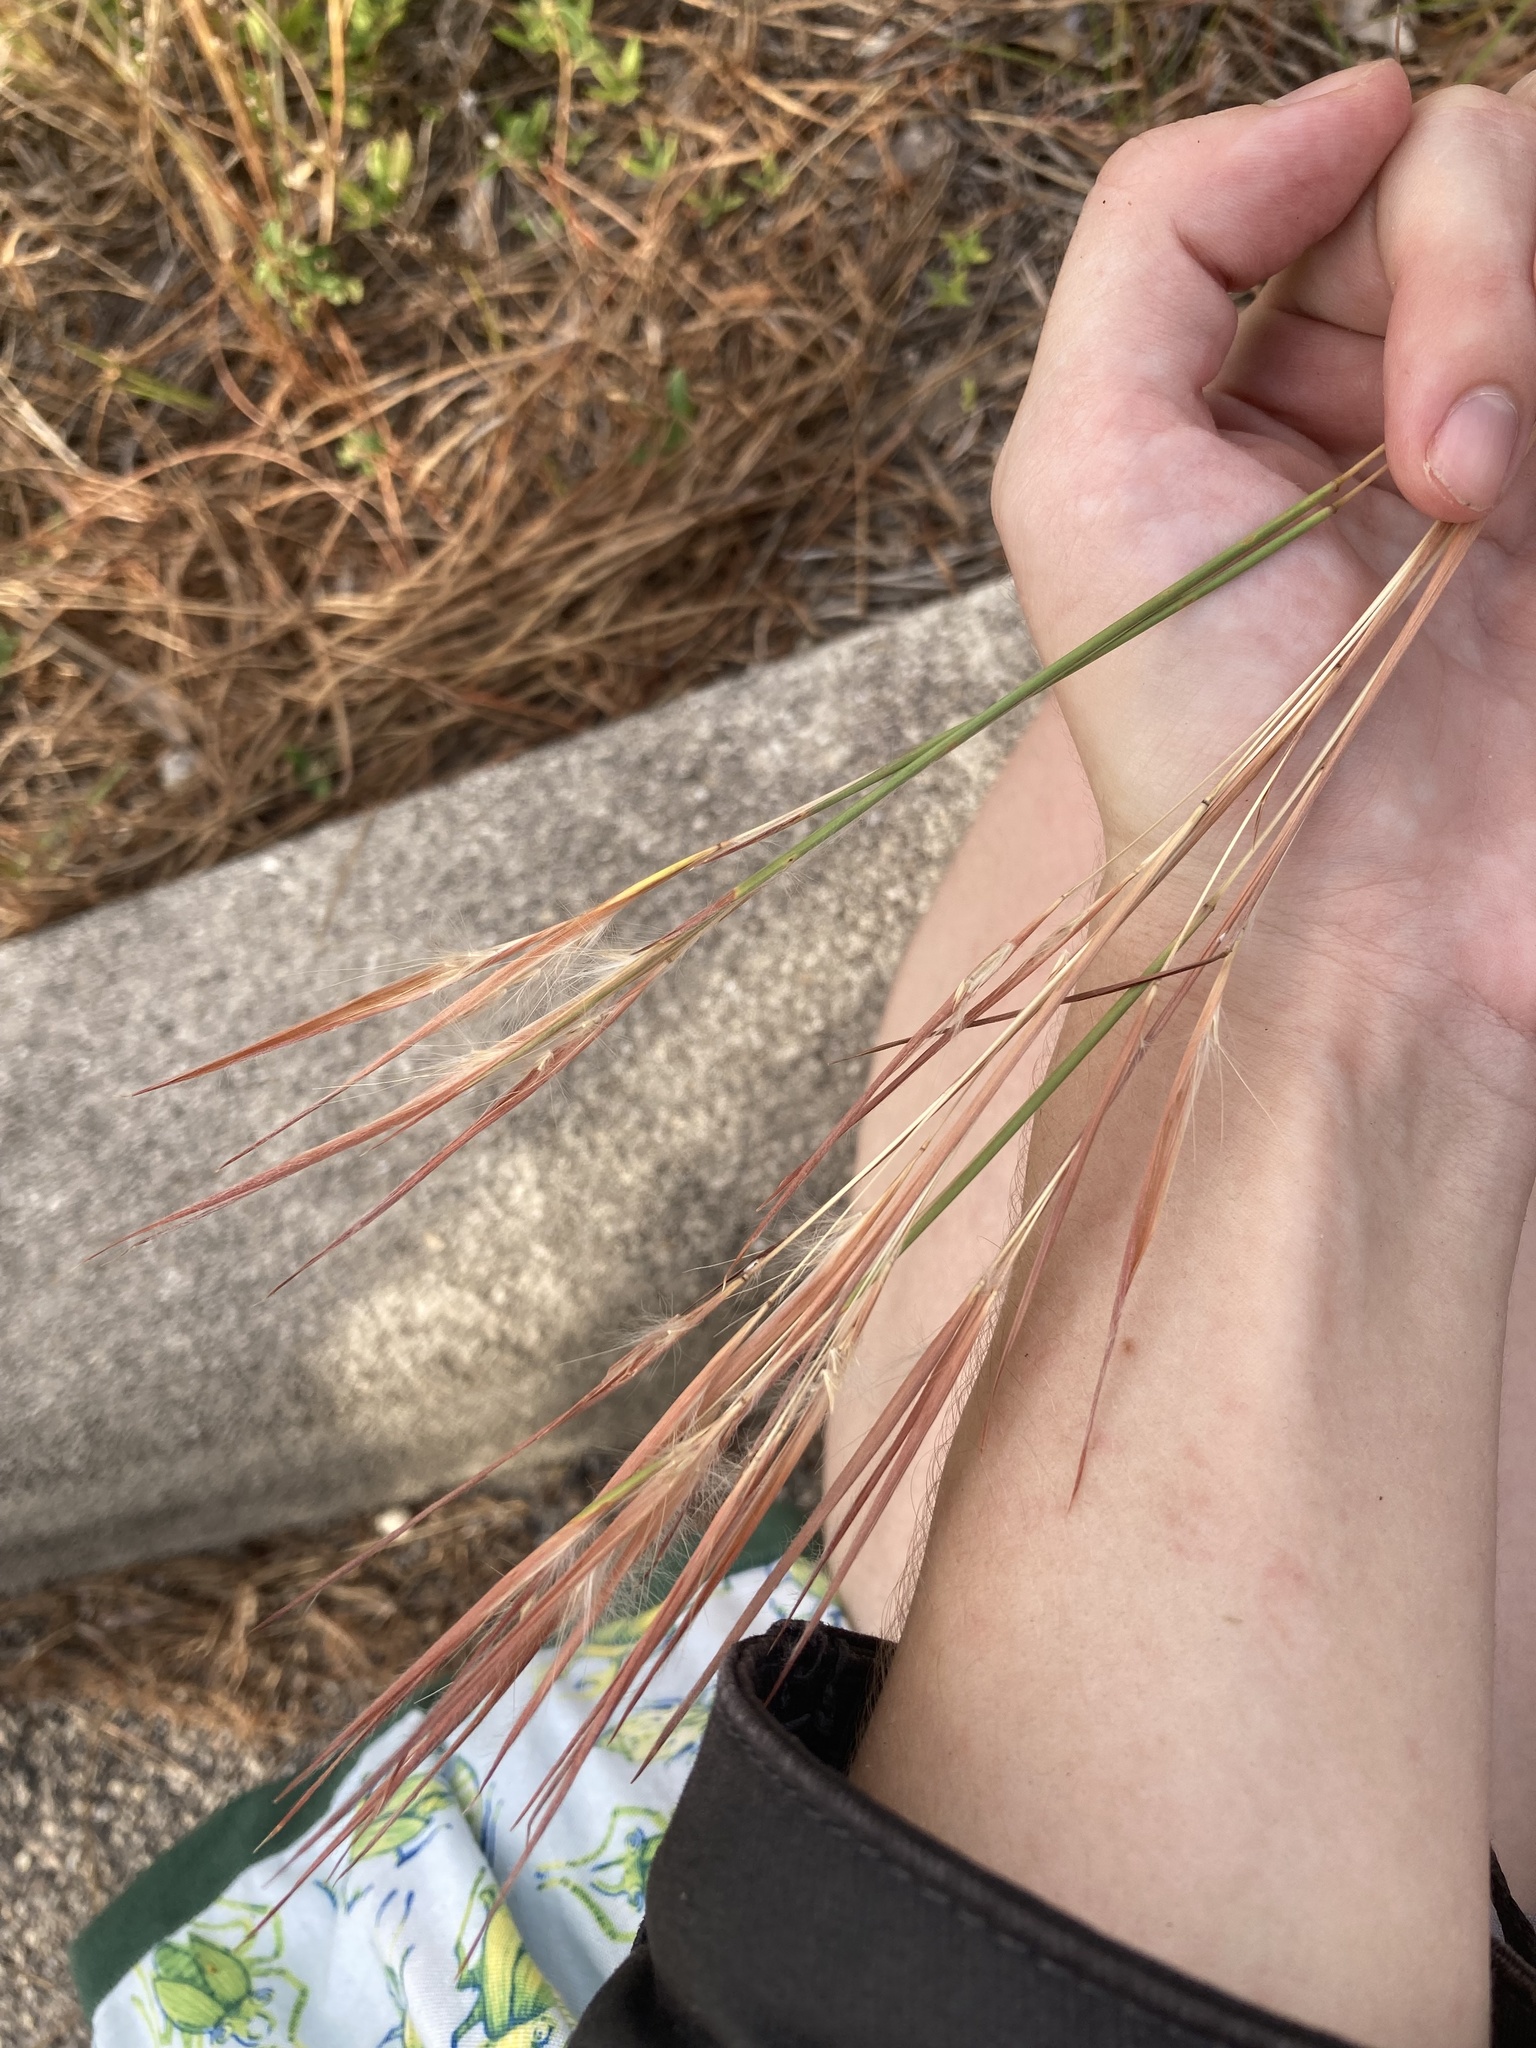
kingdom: Plantae
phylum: Tracheophyta
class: Liliopsida
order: Poales
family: Poaceae
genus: Andropogon
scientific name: Andropogon longiberbis
